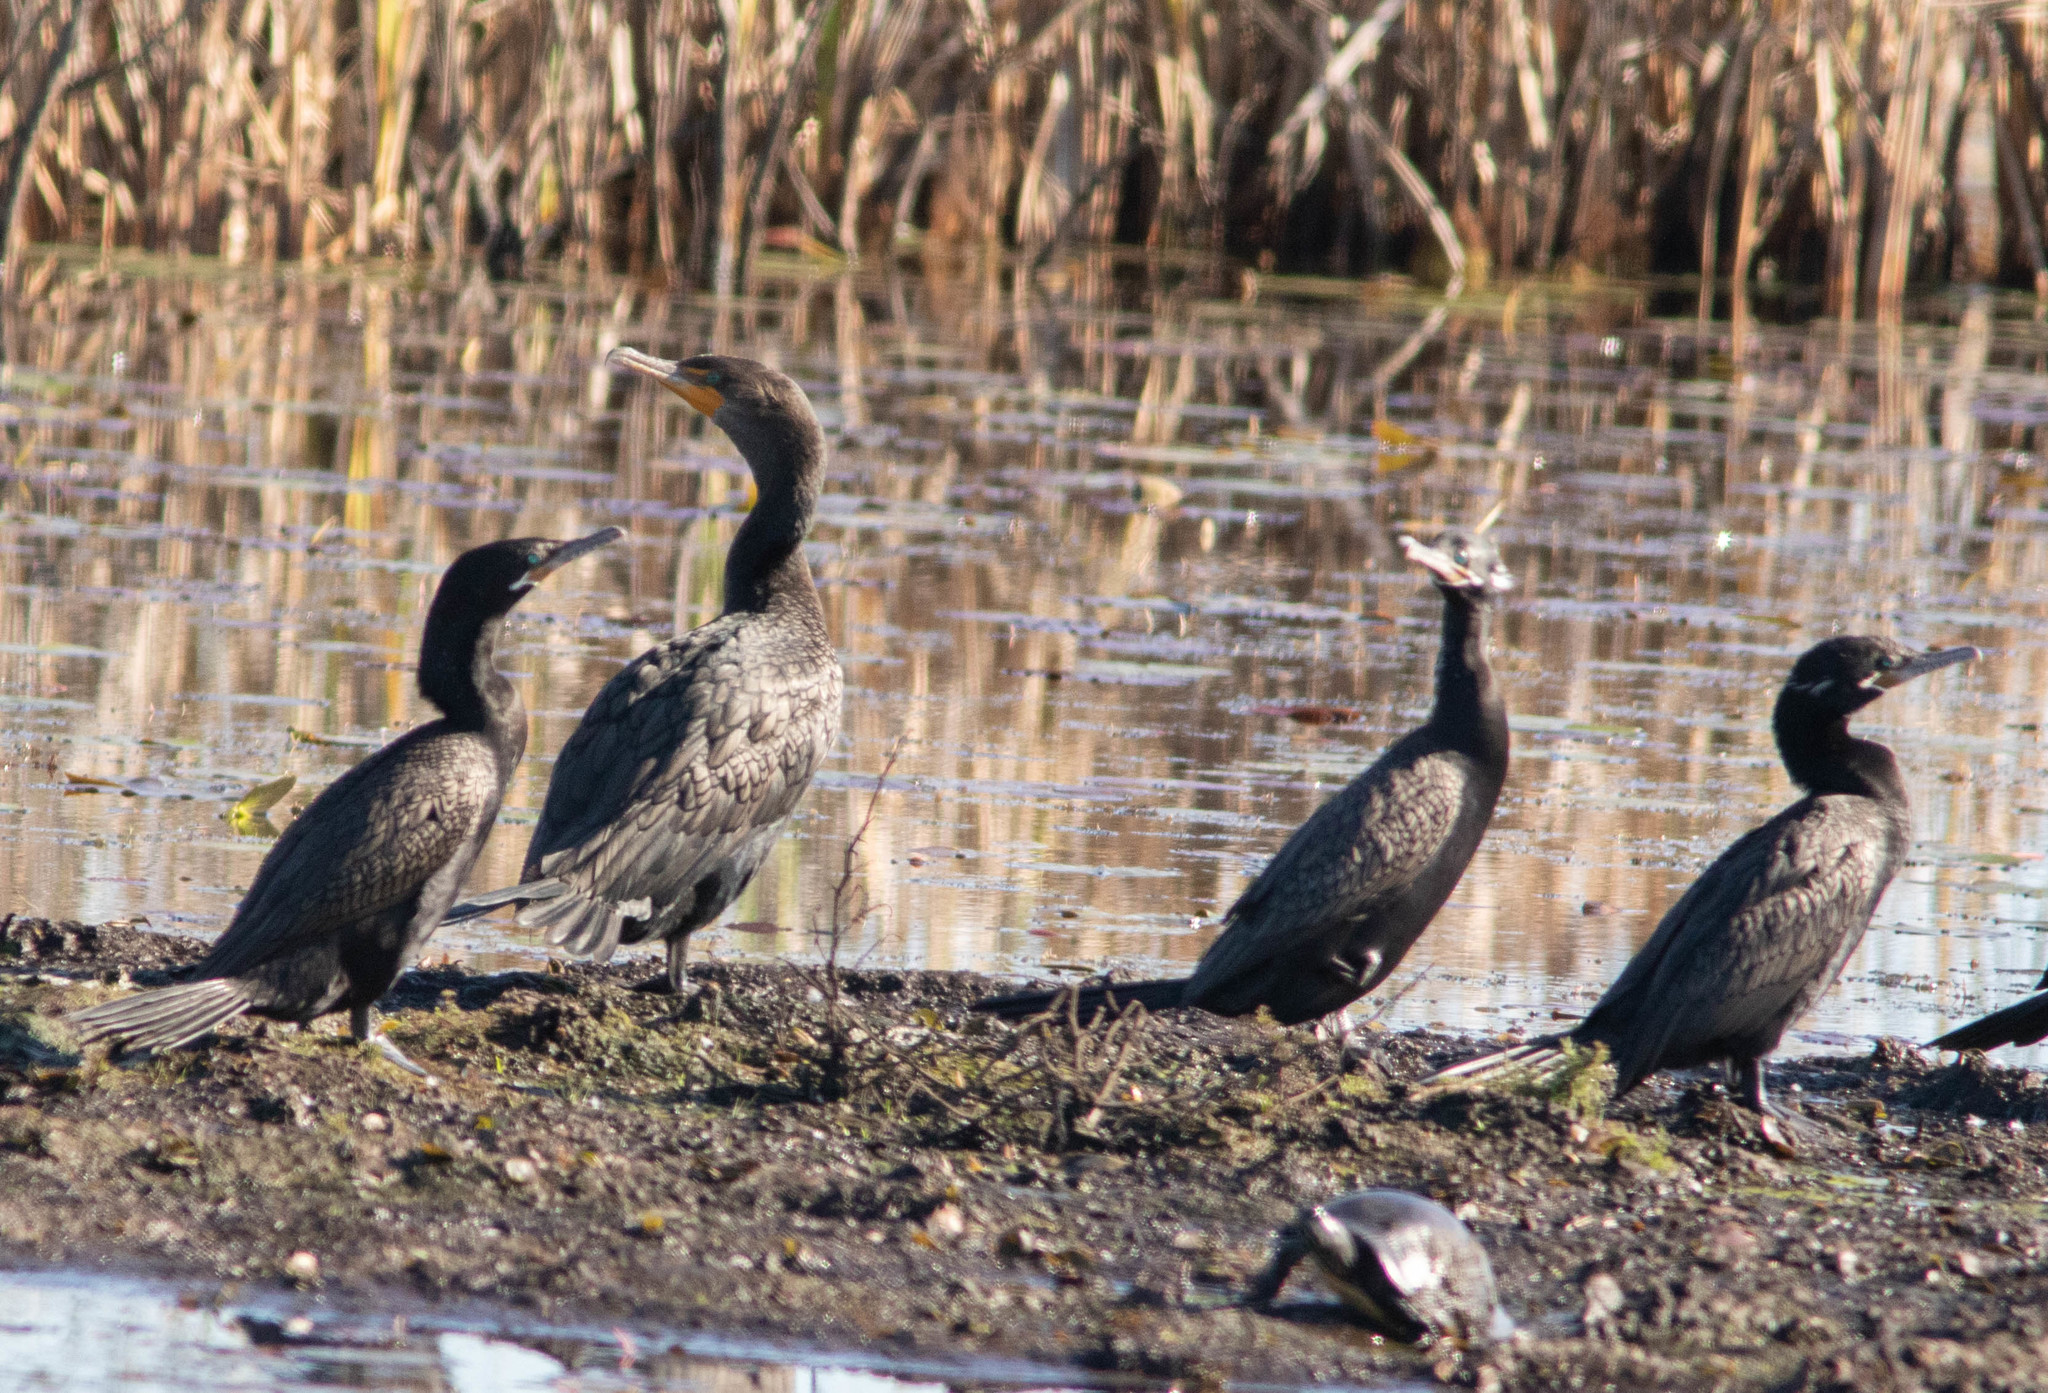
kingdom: Animalia
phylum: Chordata
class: Aves
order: Suliformes
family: Phalacrocoracidae
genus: Phalacrocorax
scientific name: Phalacrocorax auritus
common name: Double-crested cormorant
